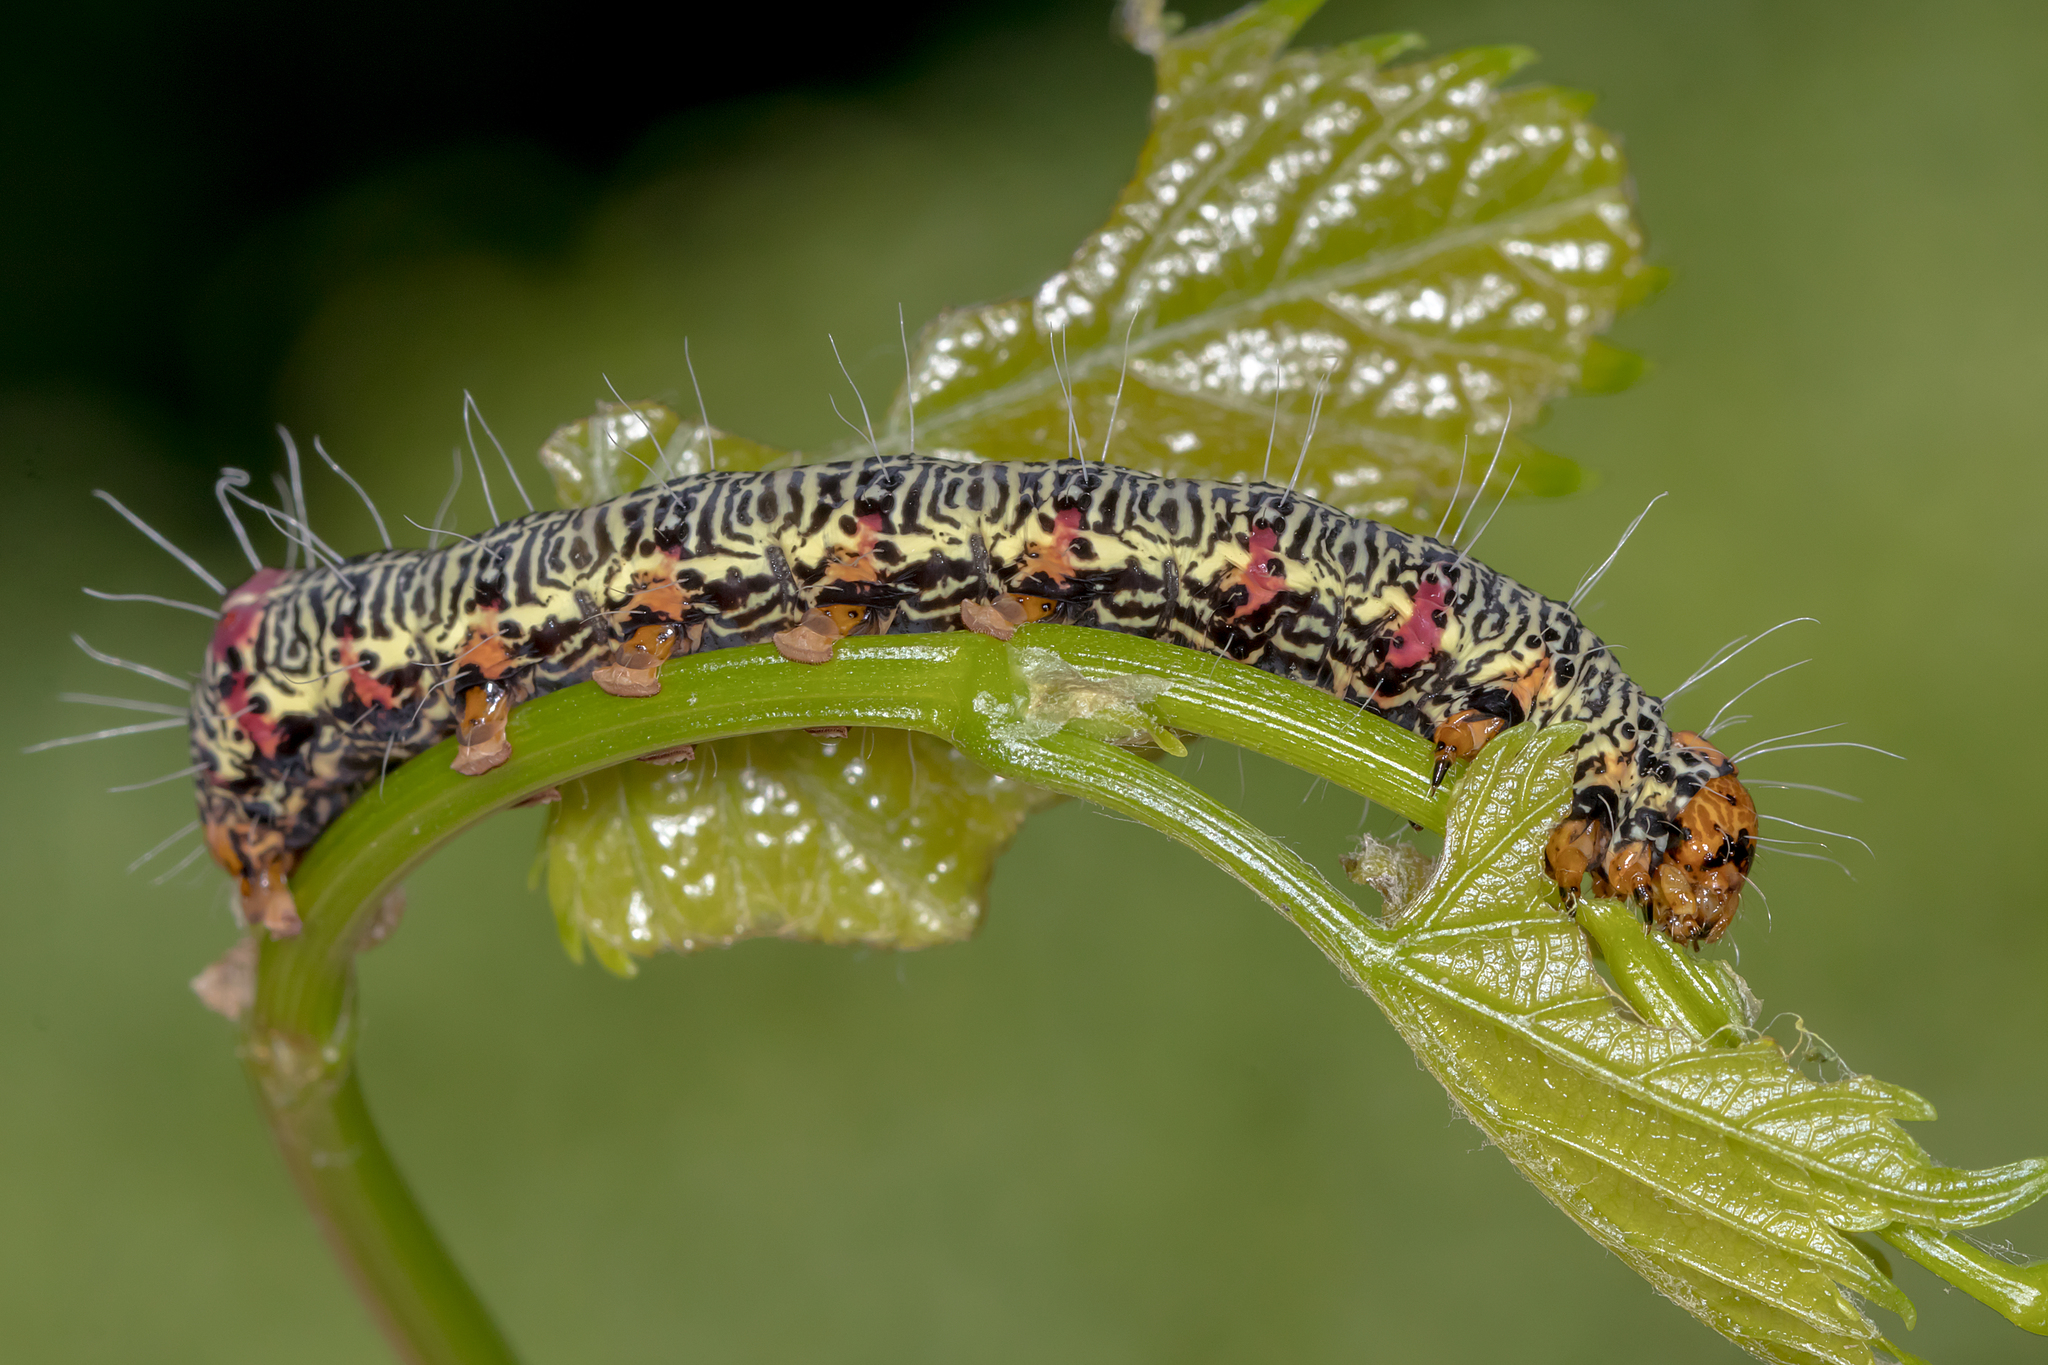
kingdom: Animalia
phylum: Arthropoda
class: Insecta
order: Lepidoptera
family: Noctuidae
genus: Phalaenoides
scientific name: Phalaenoides glycinae
